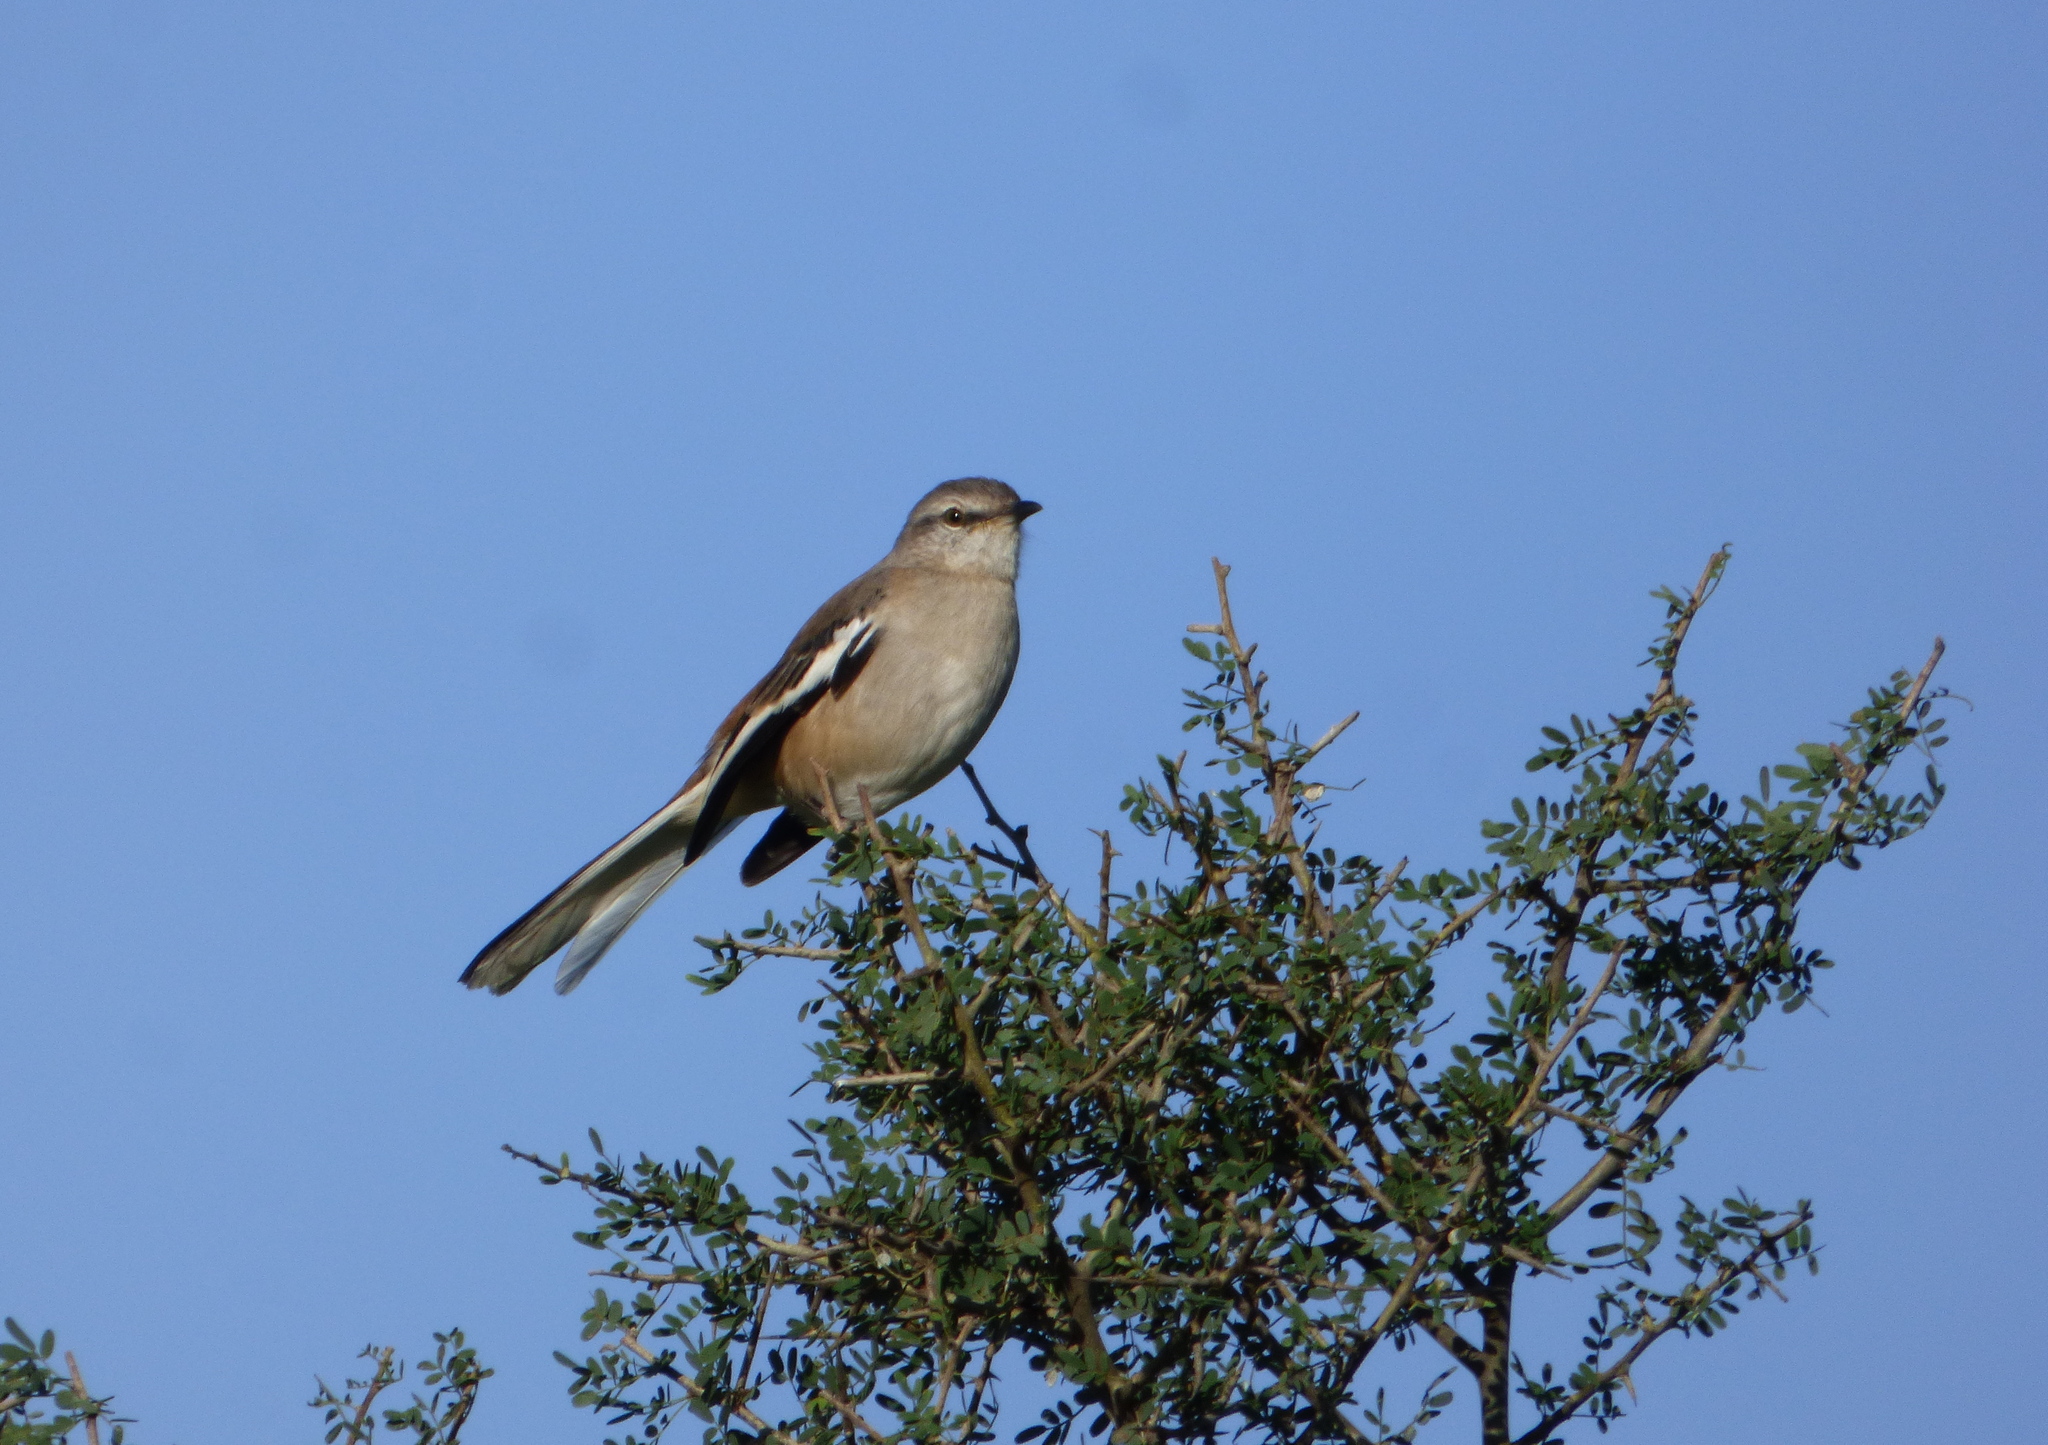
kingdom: Animalia
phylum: Chordata
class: Aves
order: Passeriformes
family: Mimidae
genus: Mimus
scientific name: Mimus triurus
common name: White-banded mockingbird
